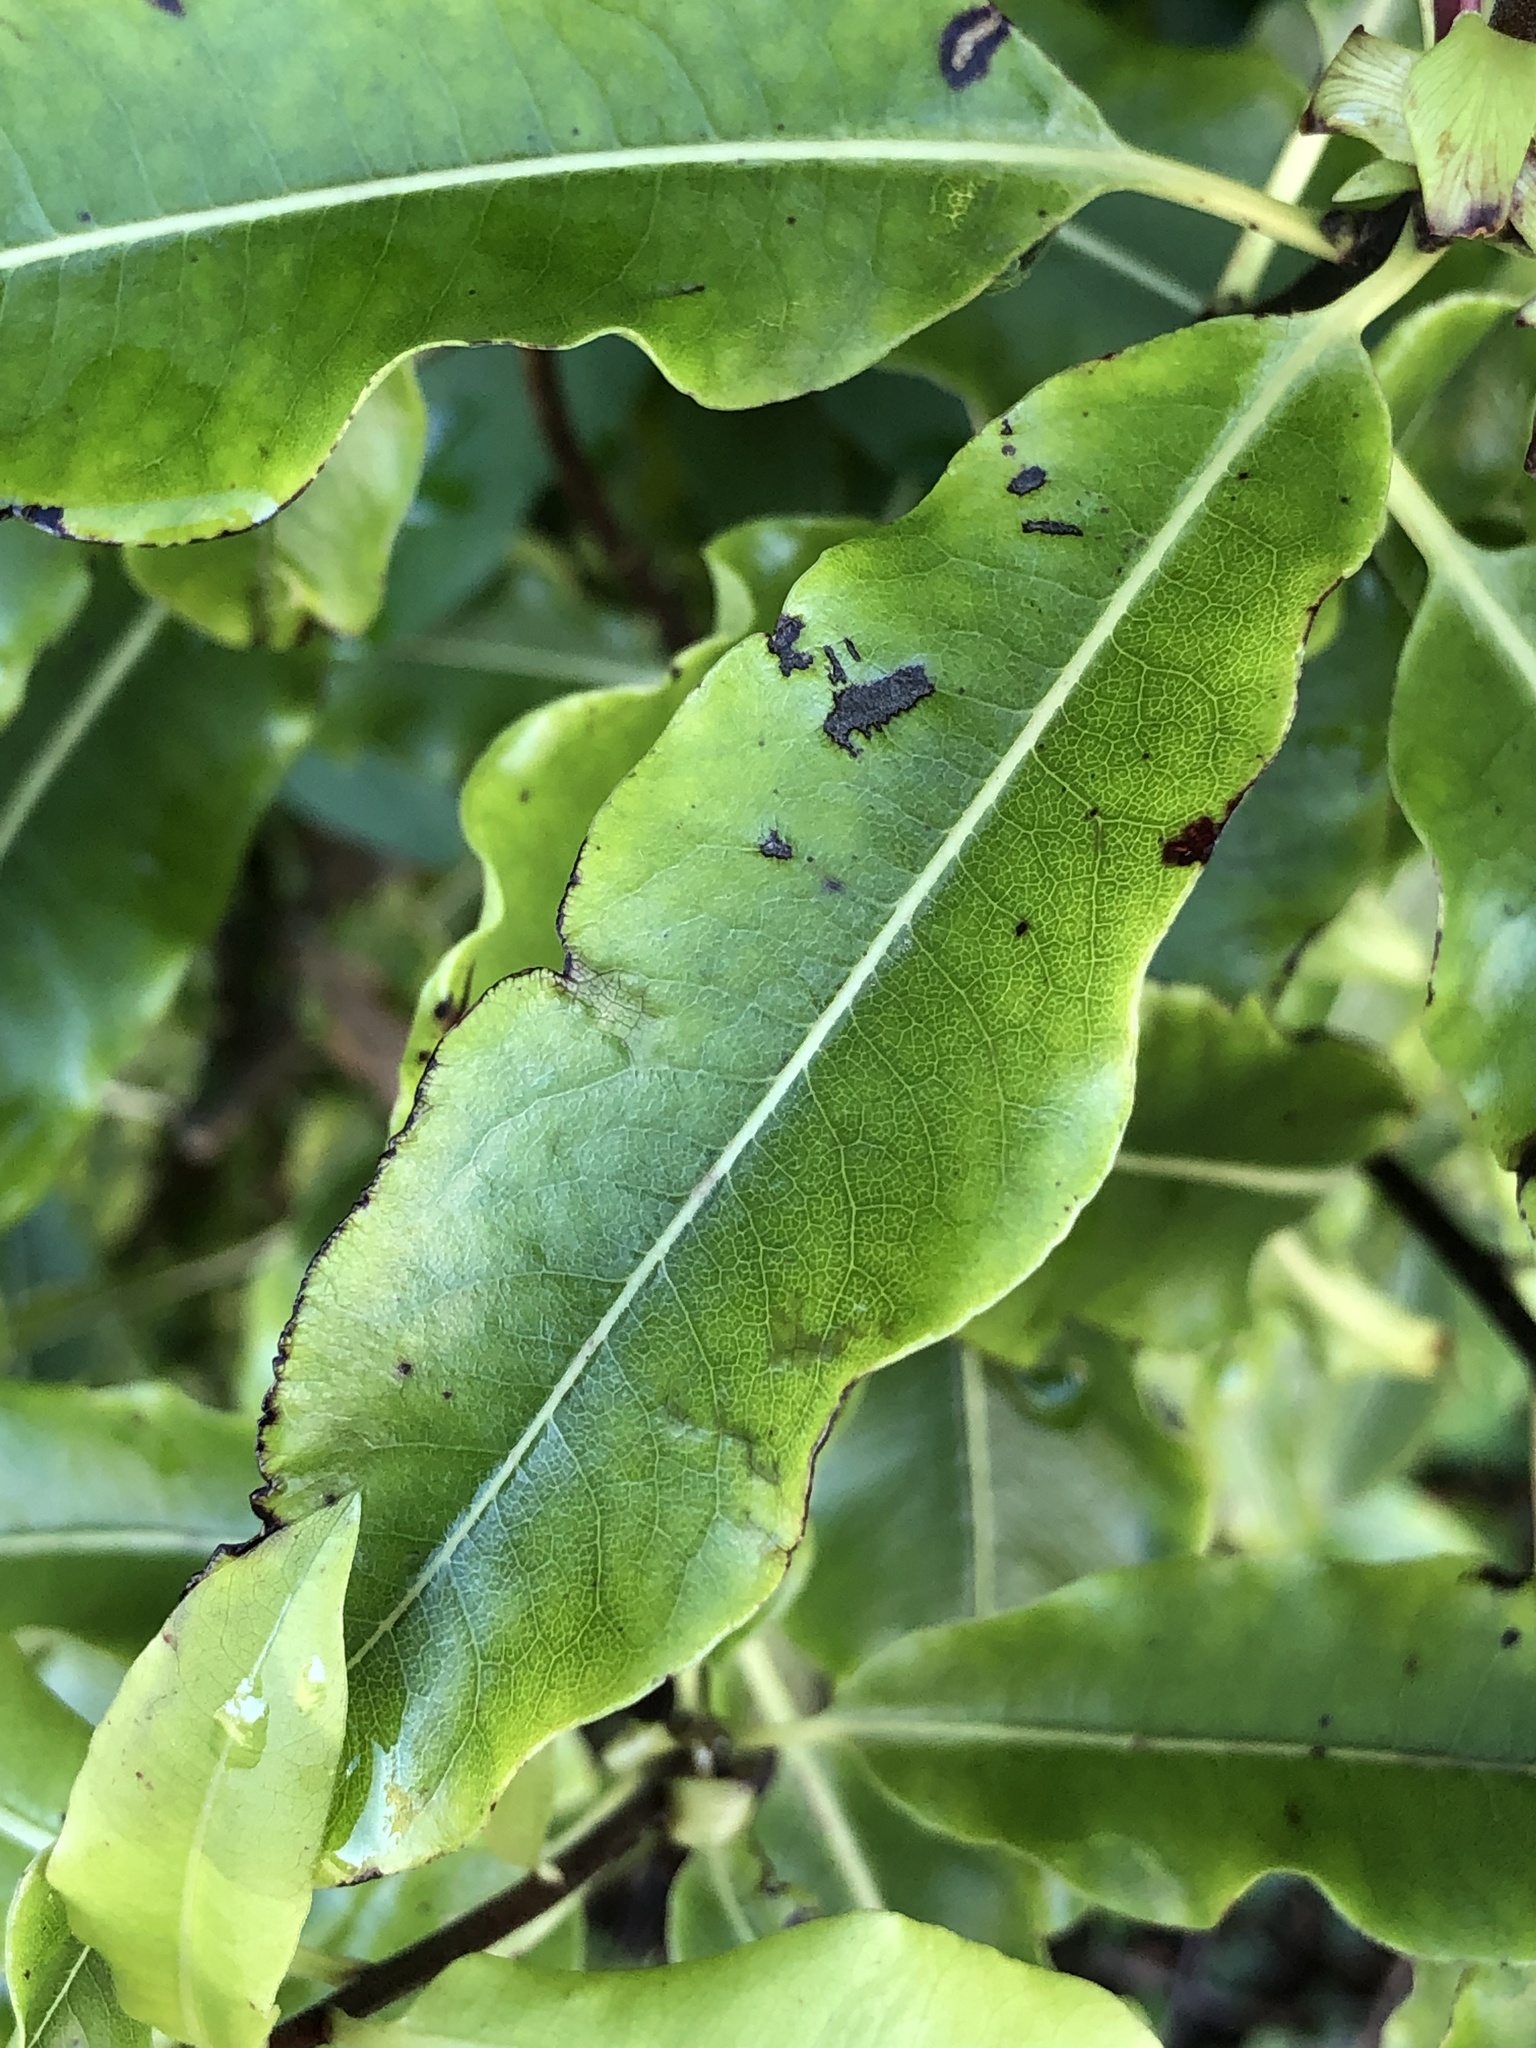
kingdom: Plantae
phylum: Tracheophyta
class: Magnoliopsida
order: Apiales
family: Pittosporaceae
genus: Pittosporum
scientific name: Pittosporum eugenioides
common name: Lemonwood
